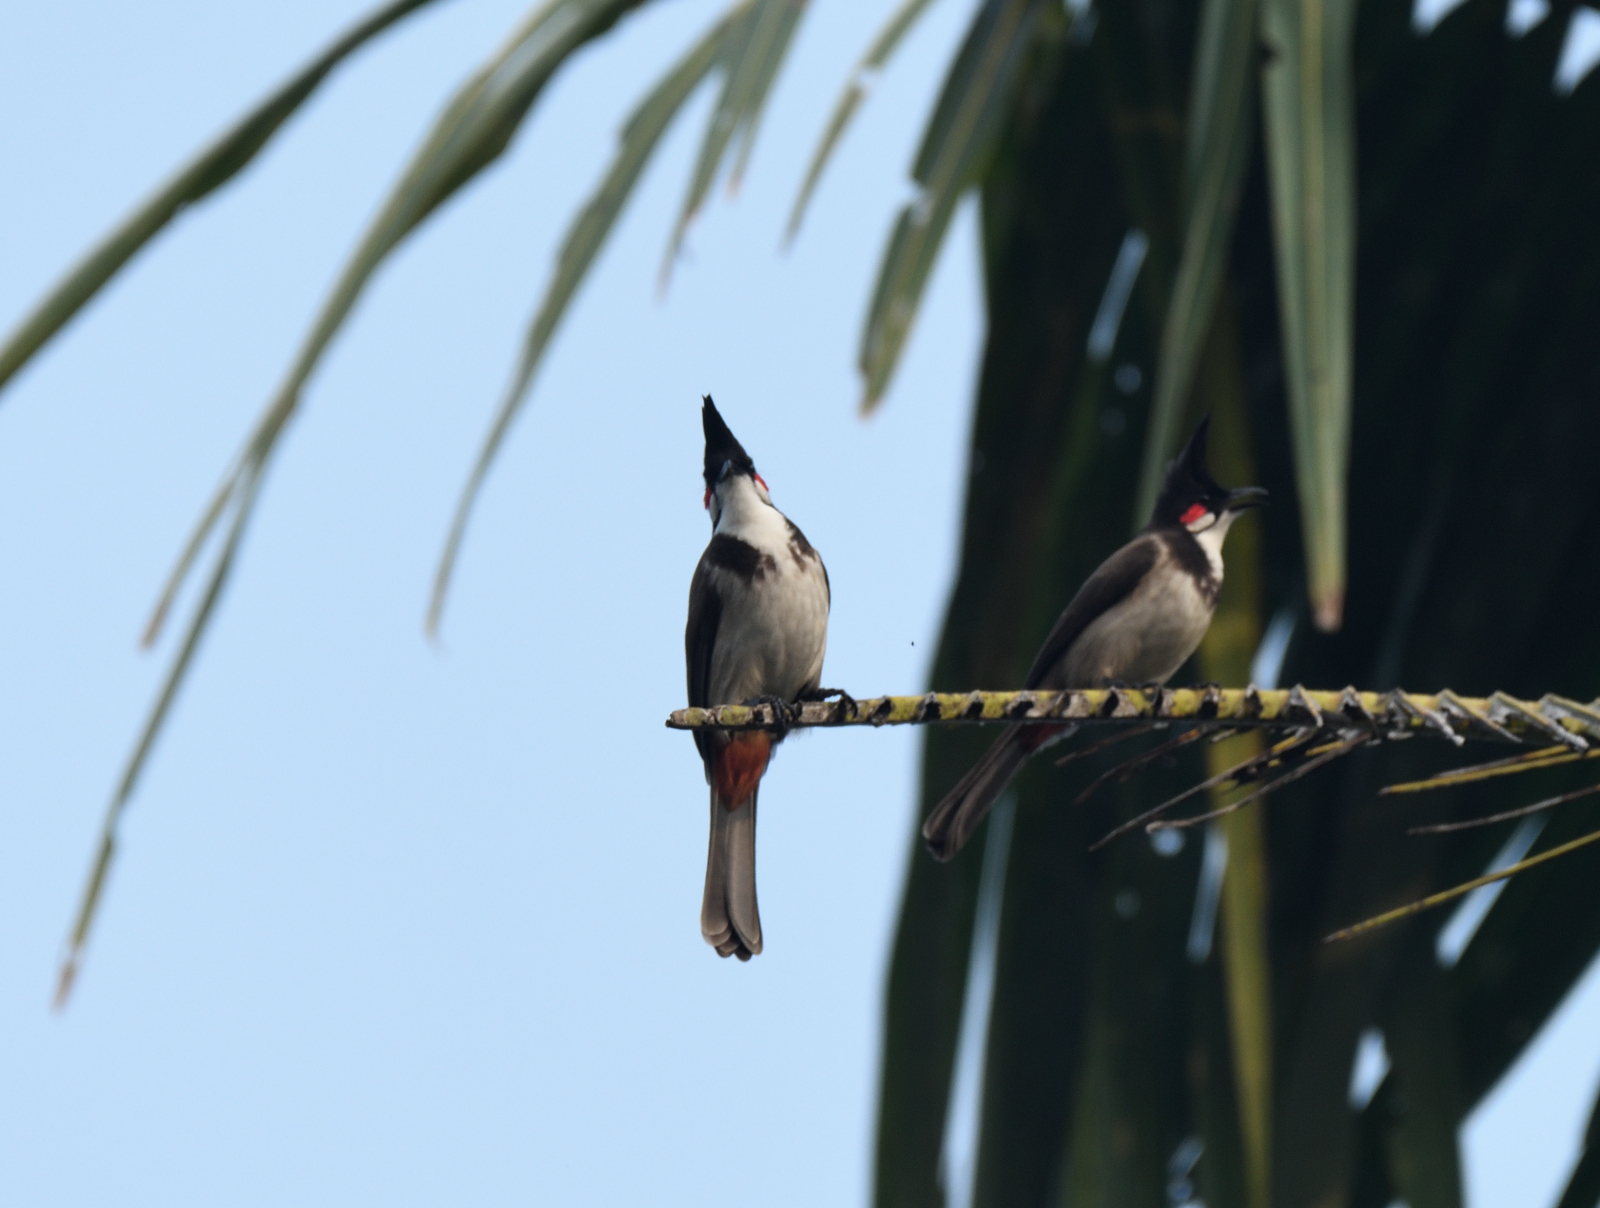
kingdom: Animalia
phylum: Chordata
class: Aves
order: Passeriformes
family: Pycnonotidae
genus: Pycnonotus
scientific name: Pycnonotus jocosus
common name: Red-whiskered bulbul
